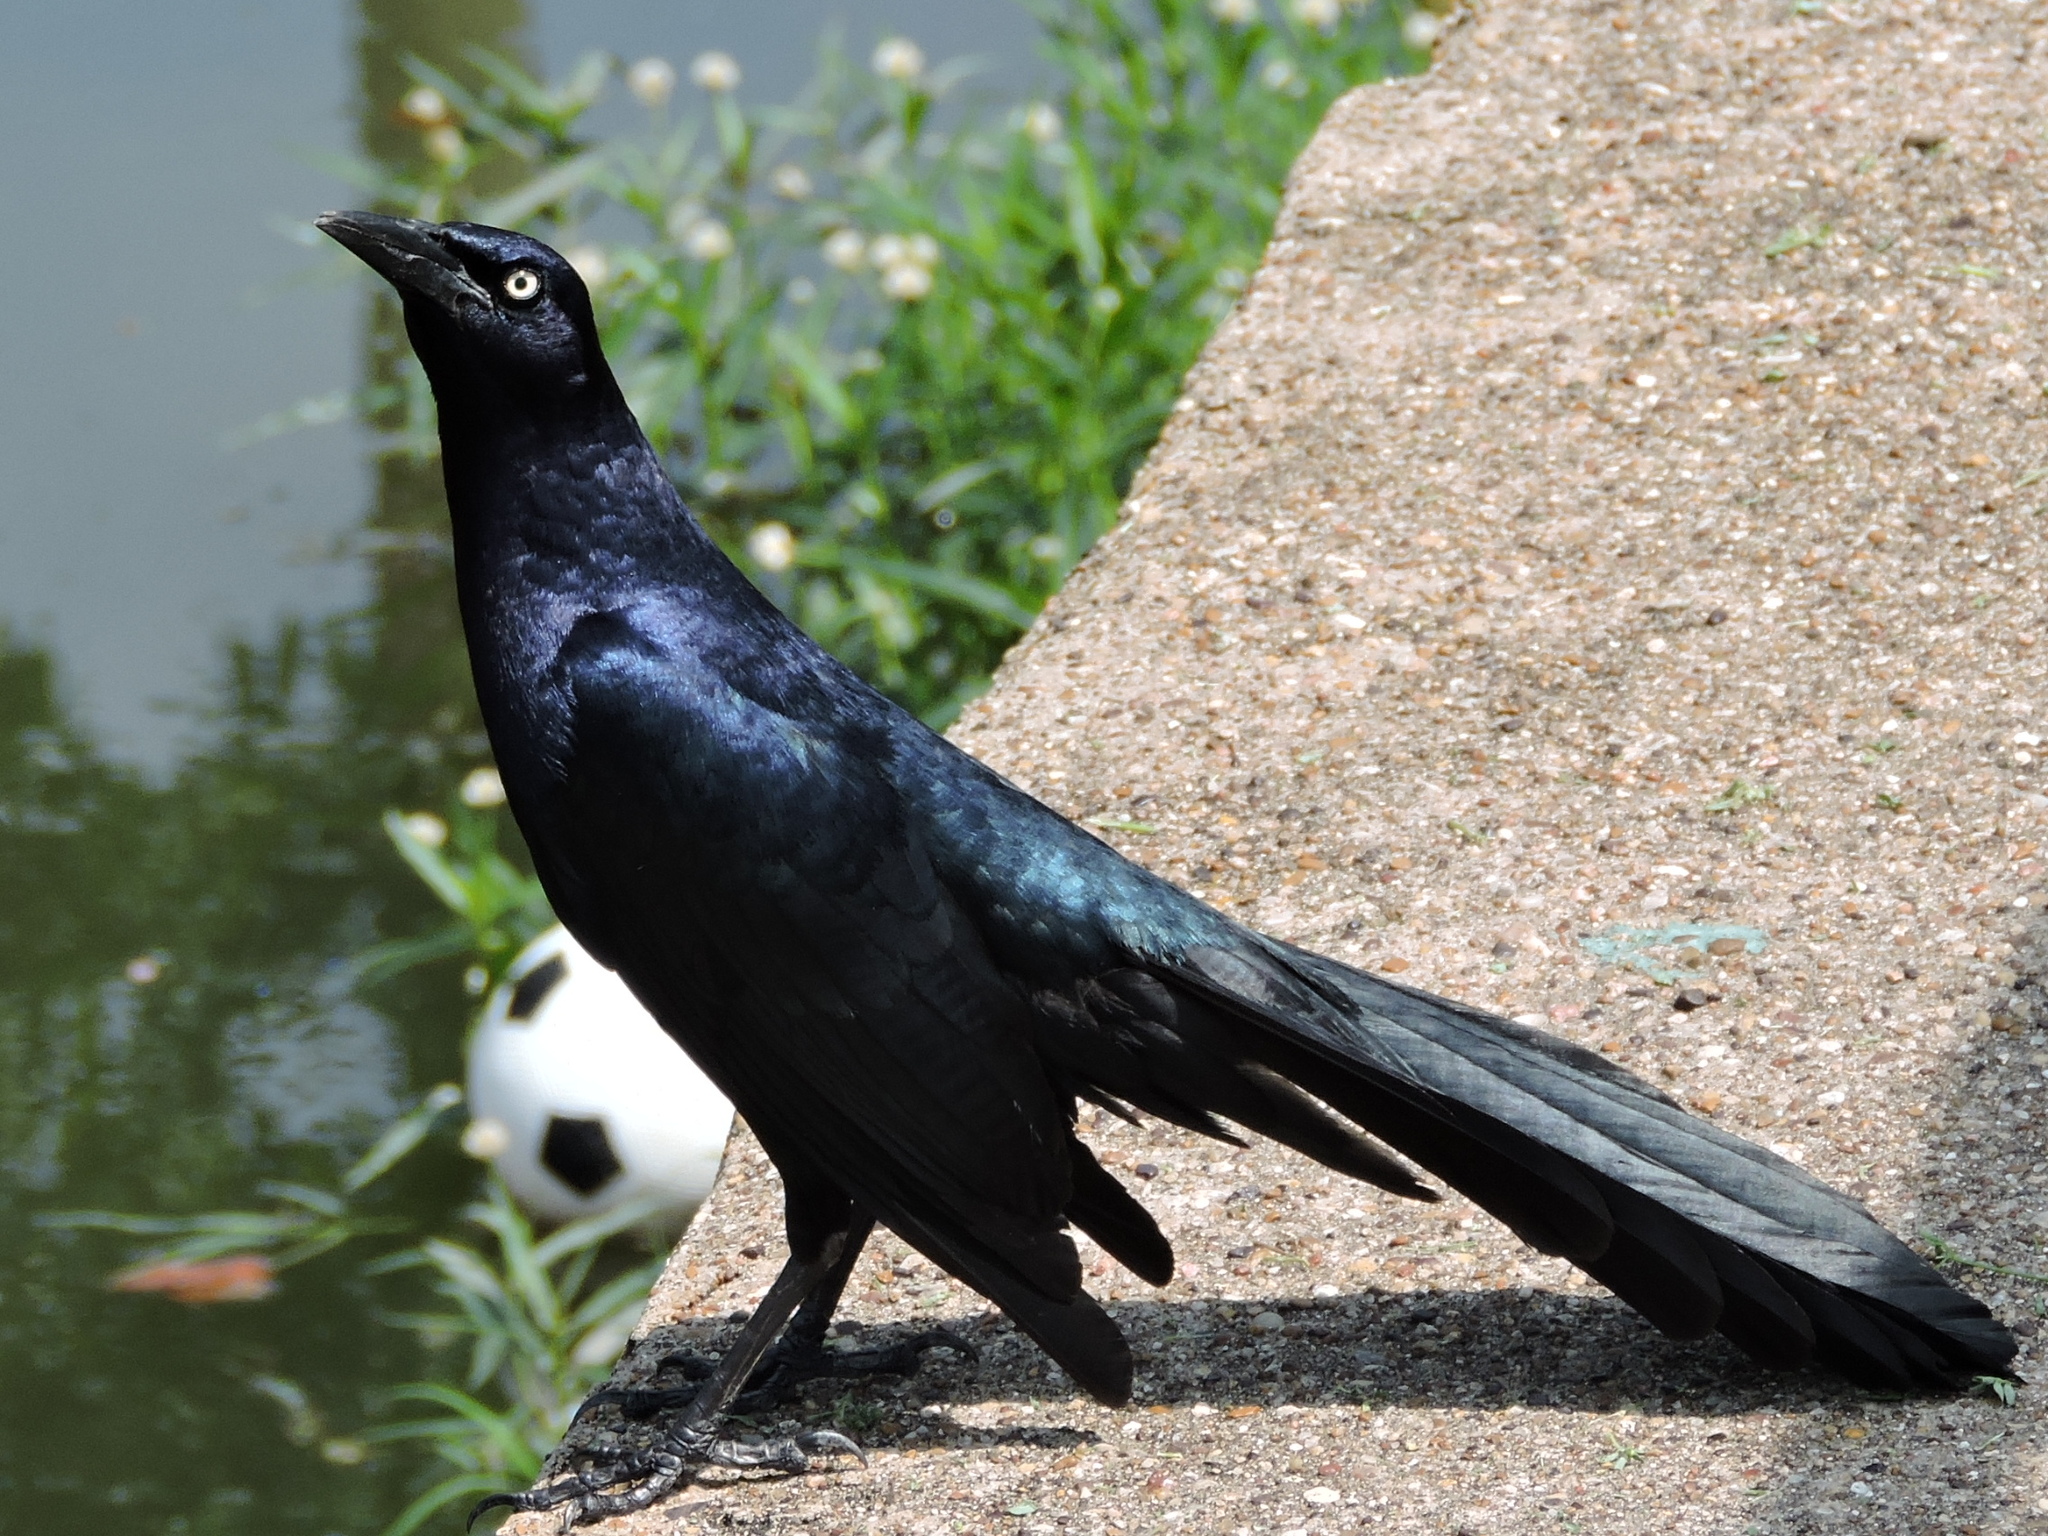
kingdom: Animalia
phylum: Chordata
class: Aves
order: Passeriformes
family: Icteridae
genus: Quiscalus
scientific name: Quiscalus mexicanus
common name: Great-tailed grackle
